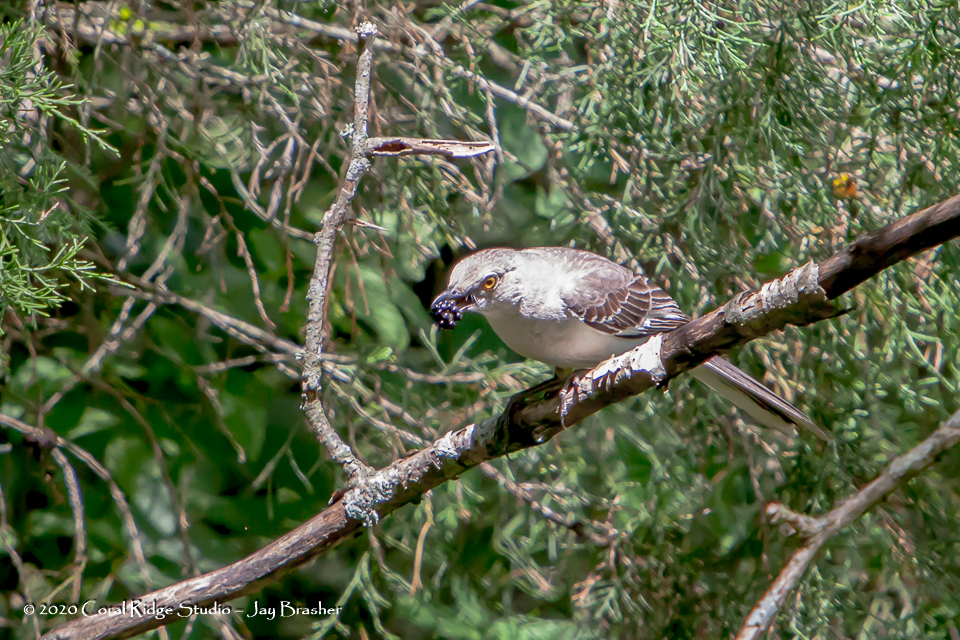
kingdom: Animalia
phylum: Chordata
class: Aves
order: Passeriformes
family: Mimidae
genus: Mimus
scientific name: Mimus polyglottos
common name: Northern mockingbird
